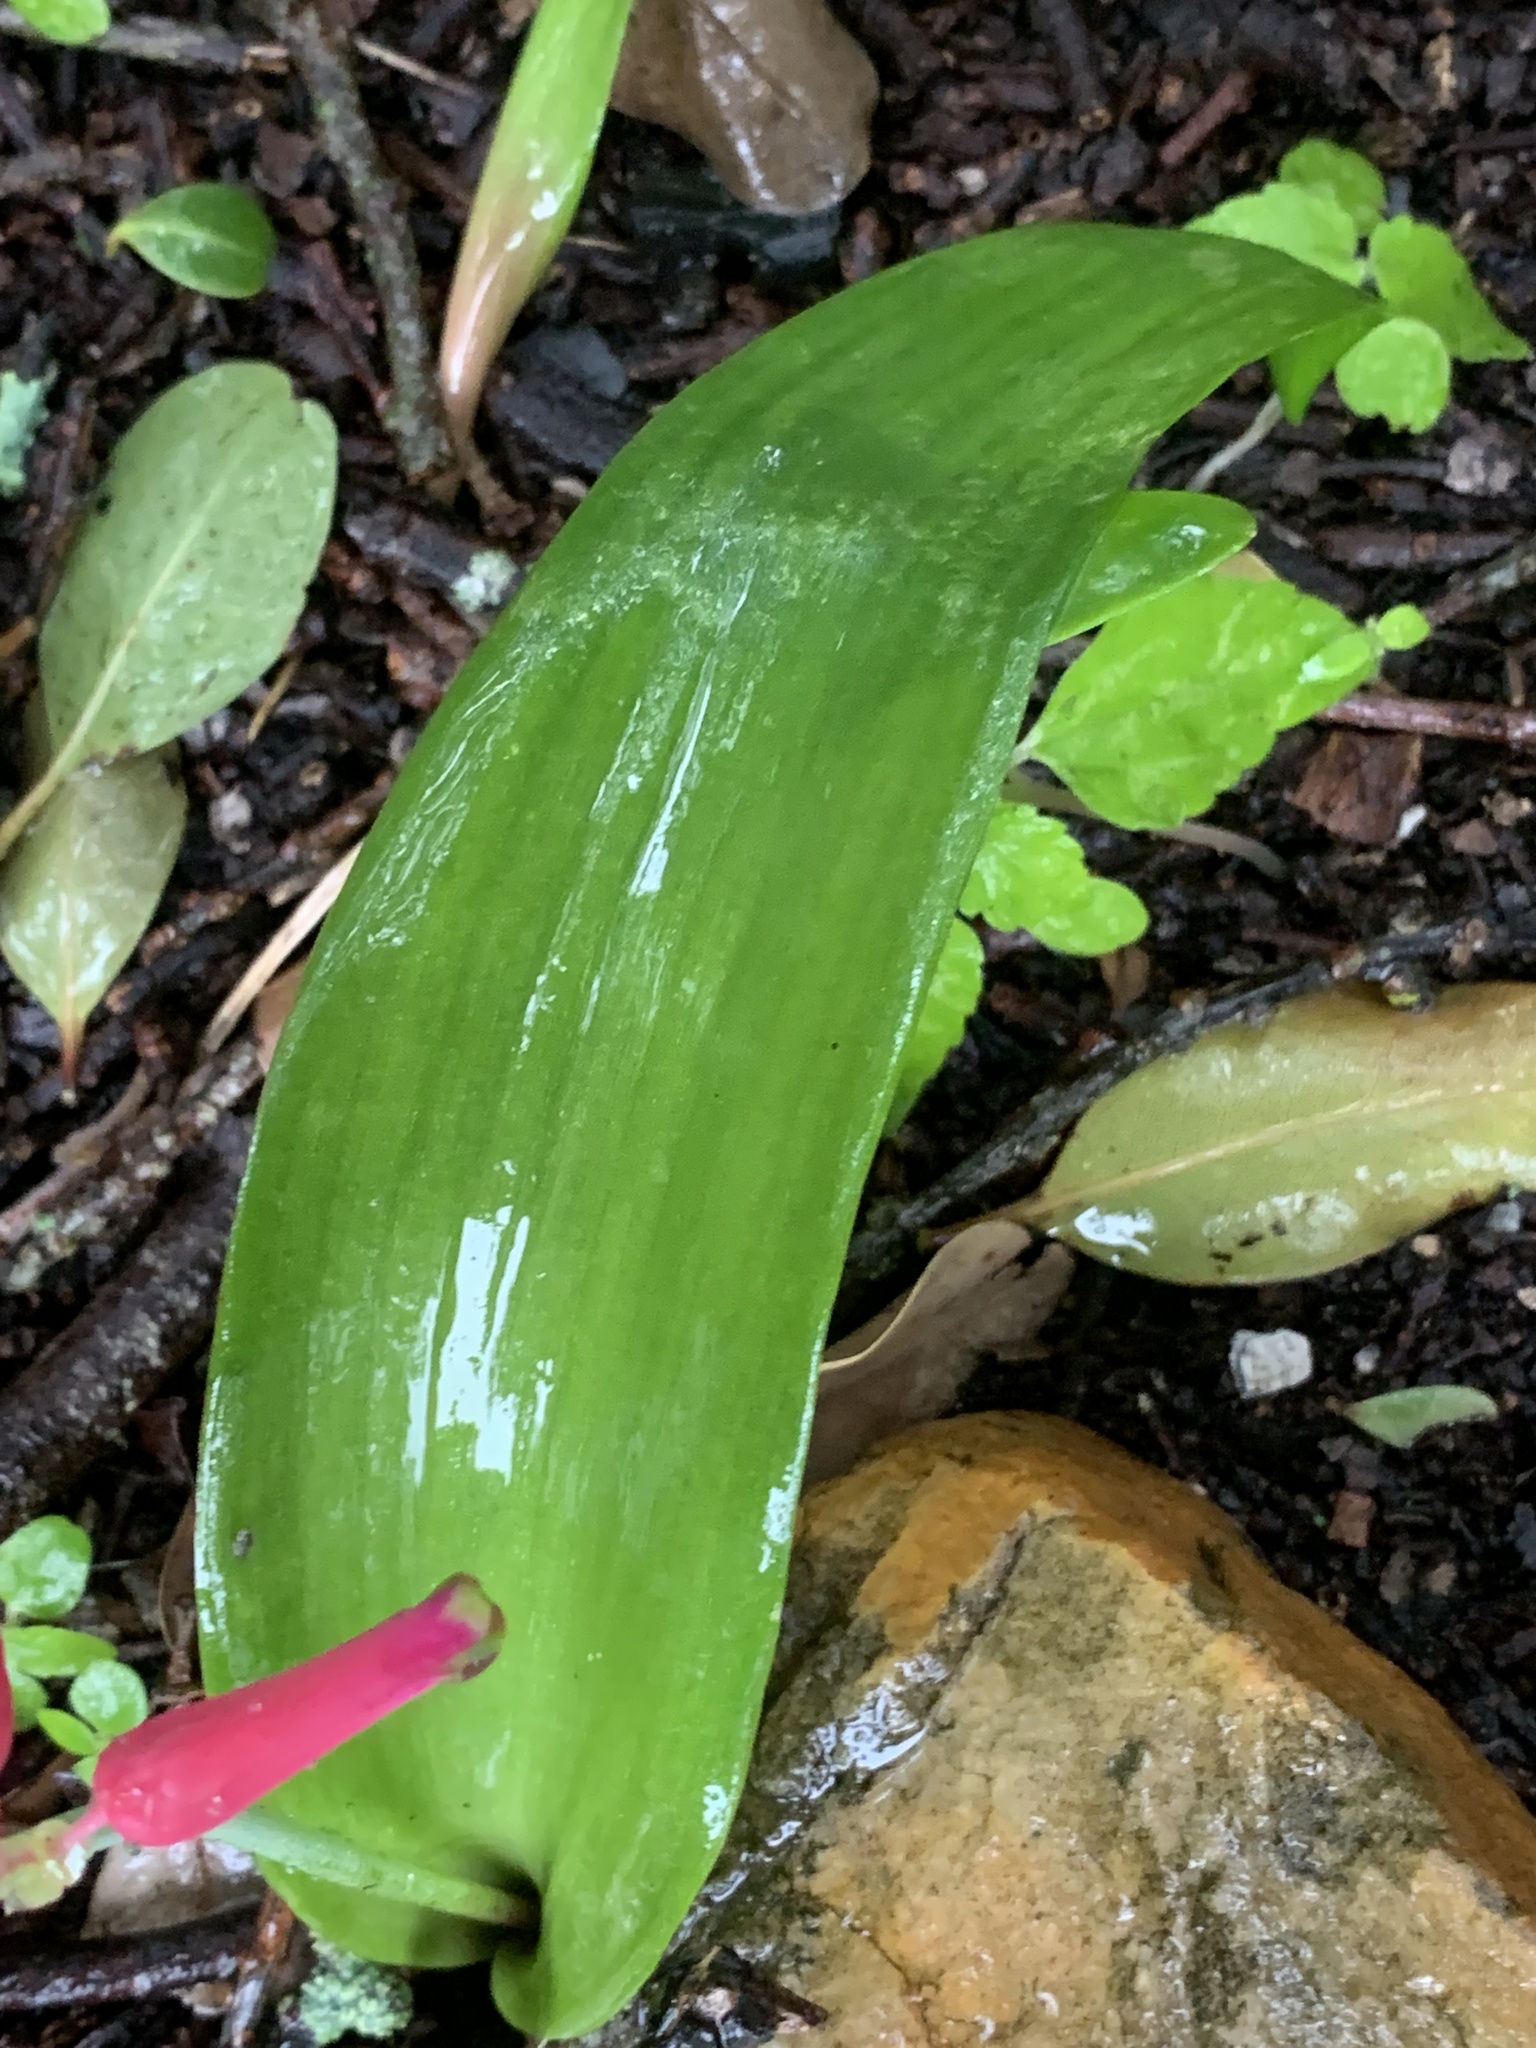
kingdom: Plantae
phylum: Tracheophyta
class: Liliopsida
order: Asparagales
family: Asparagaceae
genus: Lachenalia
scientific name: Lachenalia bulbifera
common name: Red lachenalia
